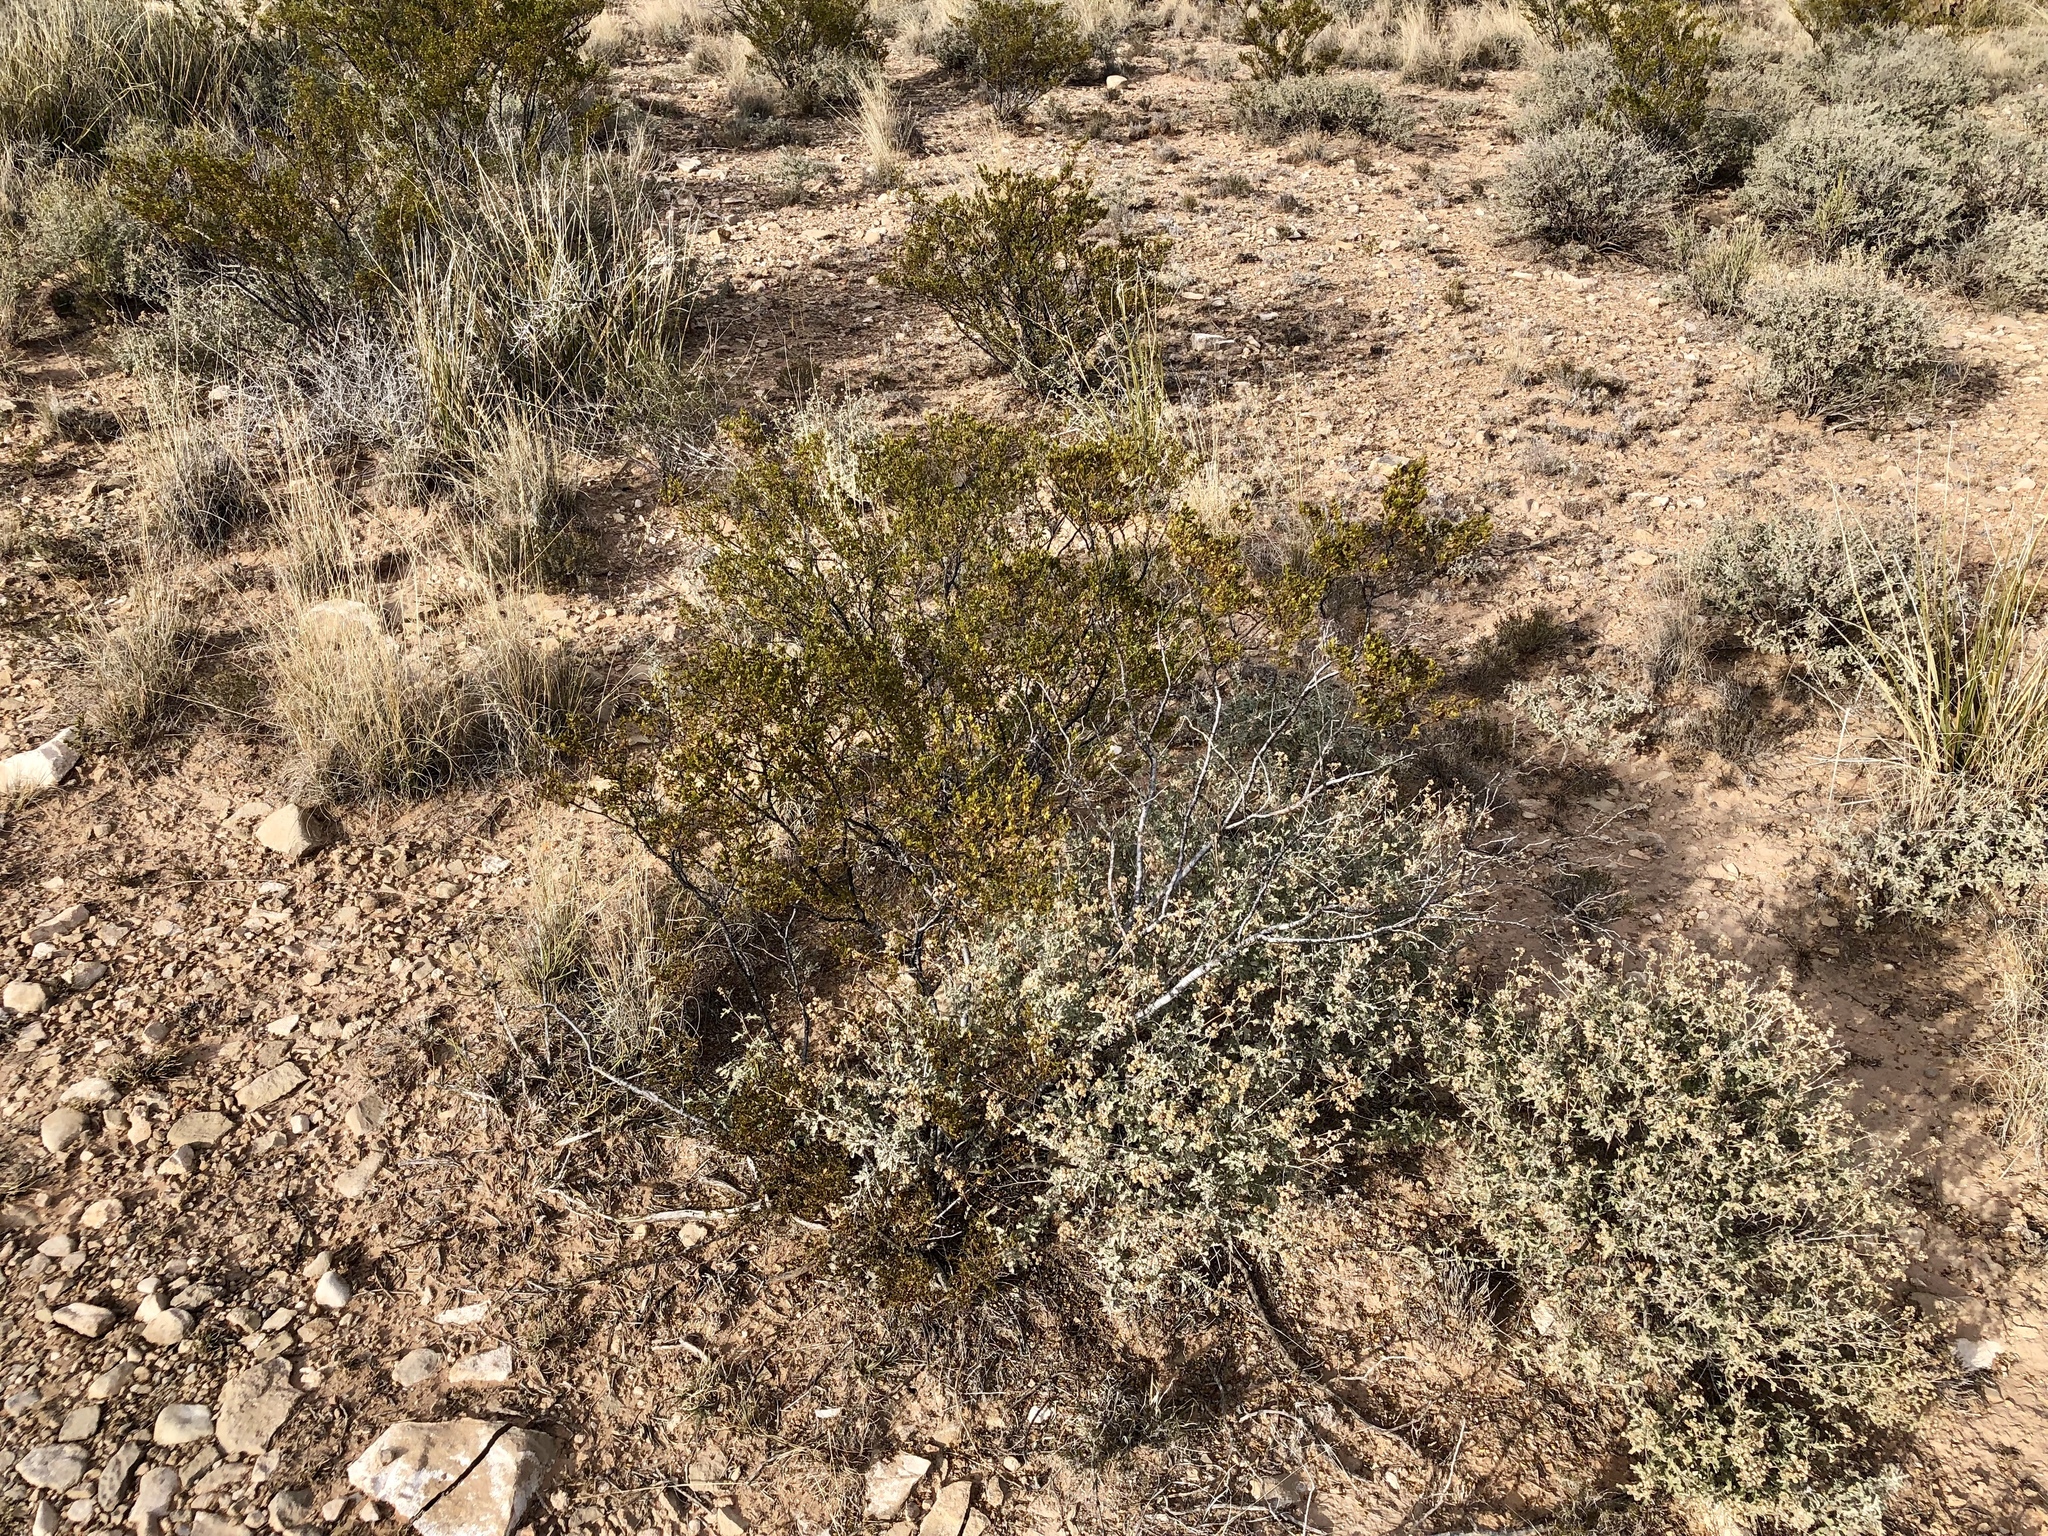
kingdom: Plantae
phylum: Tracheophyta
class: Magnoliopsida
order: Zygophyllales
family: Zygophyllaceae
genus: Larrea
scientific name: Larrea tridentata
